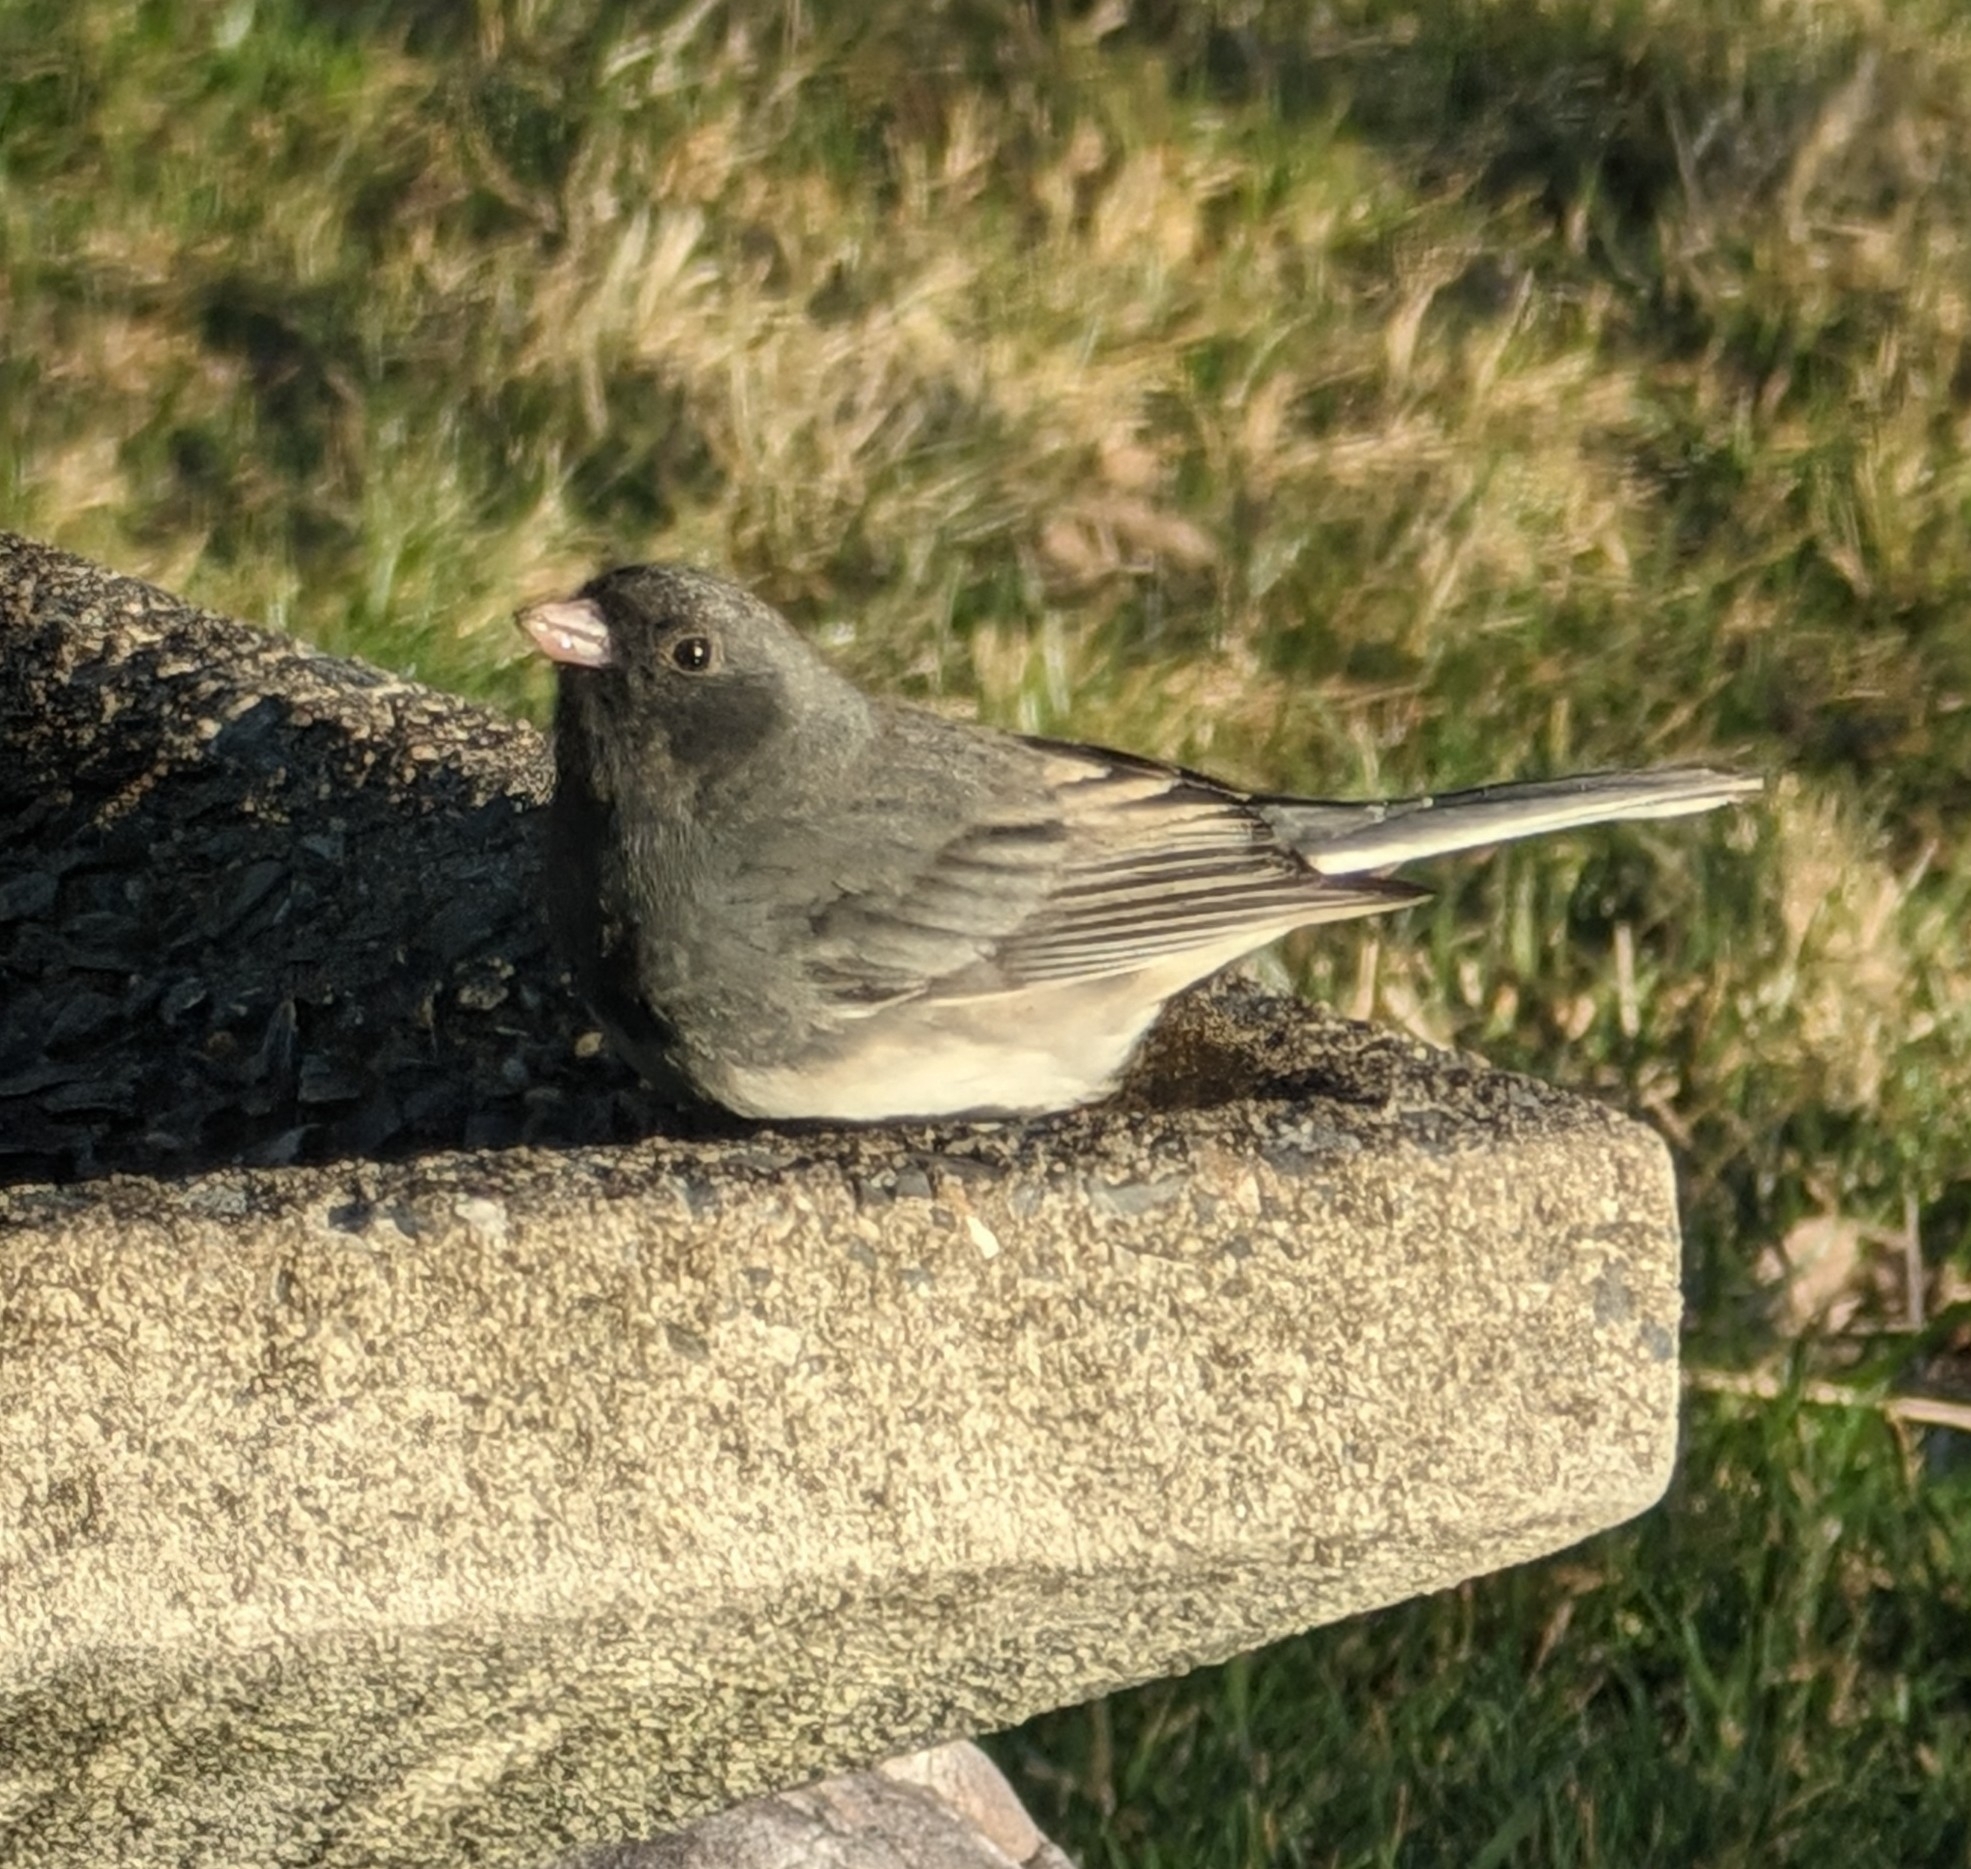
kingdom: Animalia
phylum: Chordata
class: Aves
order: Passeriformes
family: Passerellidae
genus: Junco
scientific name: Junco hyemalis
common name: Dark-eyed junco
